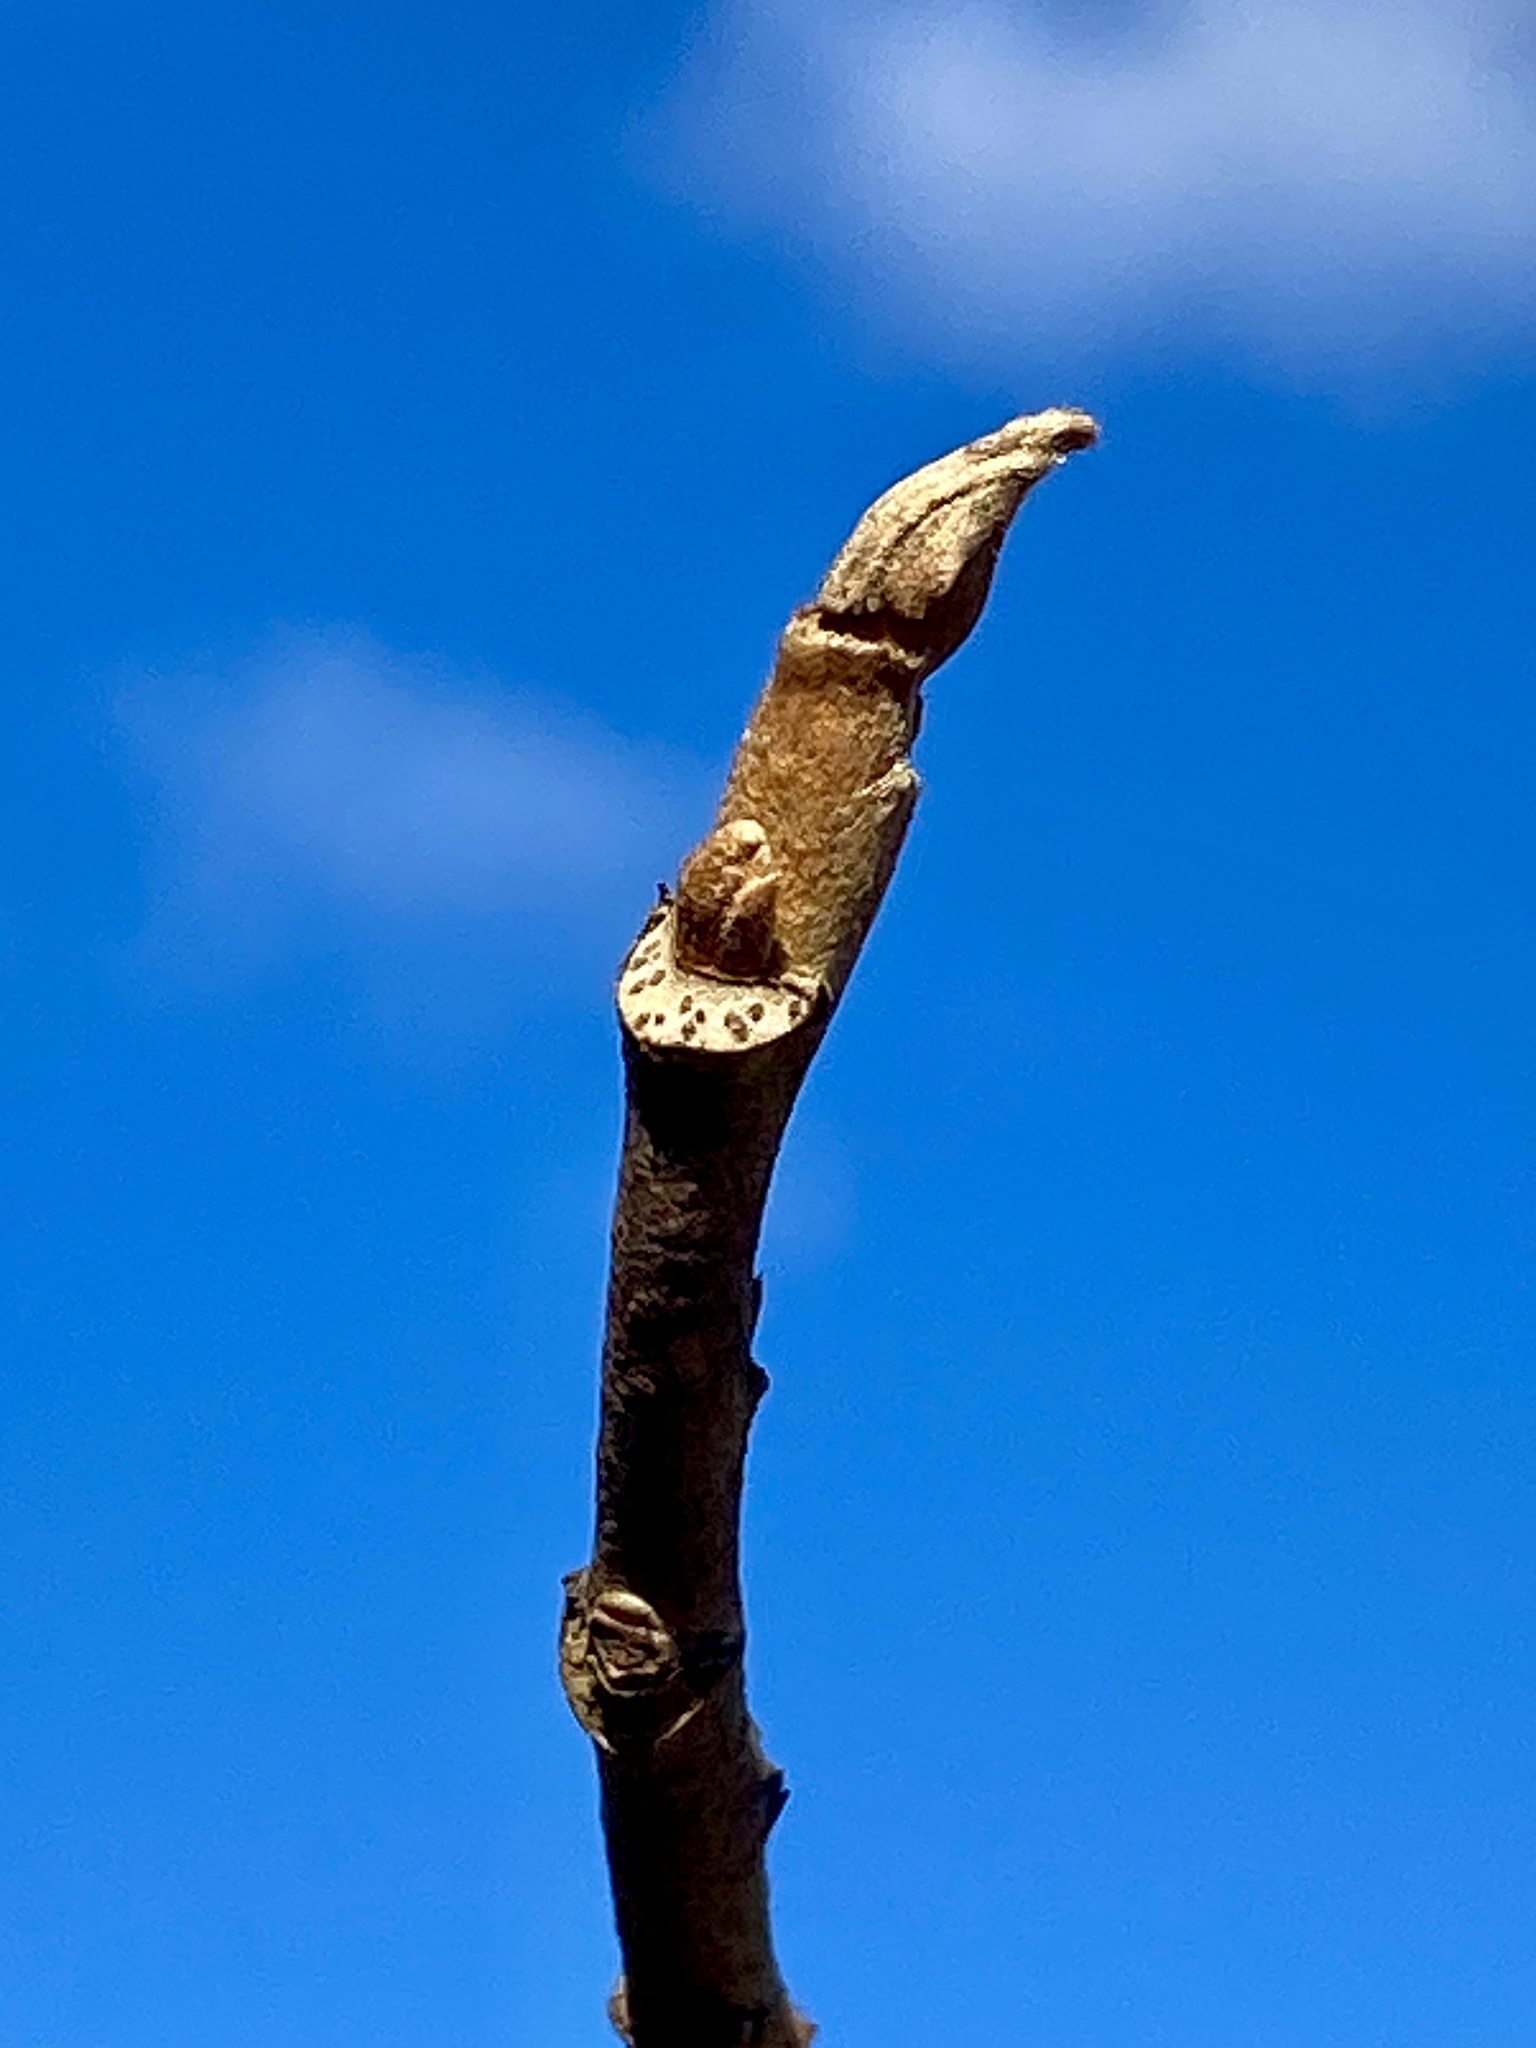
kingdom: Plantae
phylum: Tracheophyta
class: Magnoliopsida
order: Sapindales
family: Anacardiaceae
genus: Toxicodendron
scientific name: Toxicodendron radicans
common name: Poison ivy
